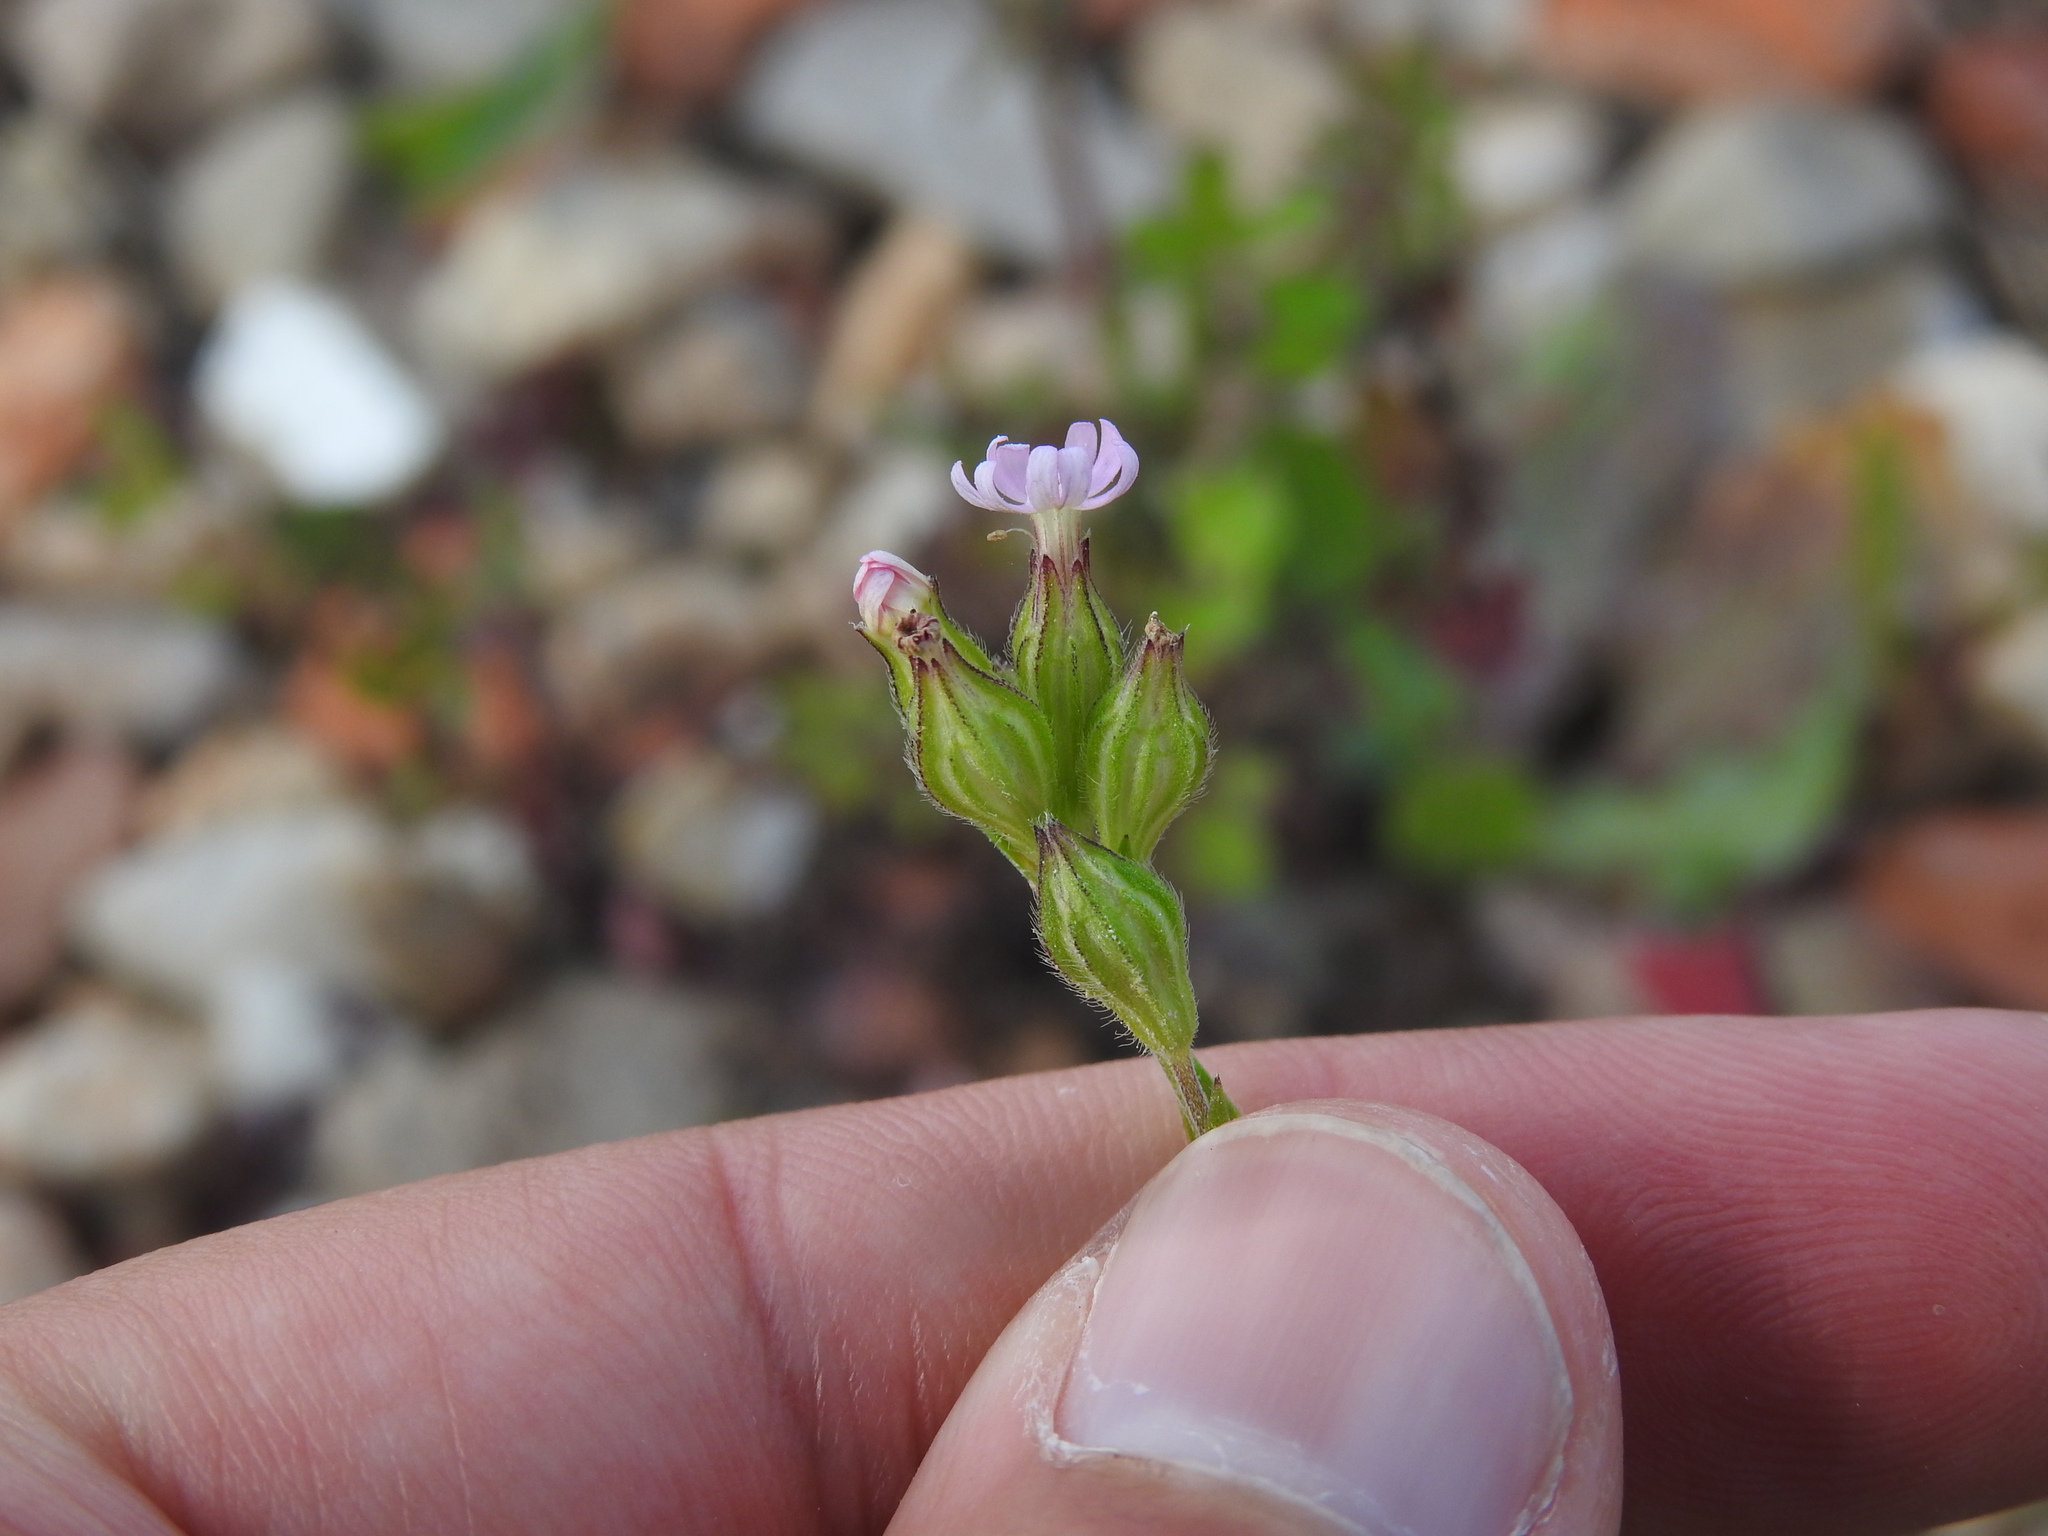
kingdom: Plantae
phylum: Tracheophyta
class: Magnoliopsida
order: Caryophyllales
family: Caryophyllaceae
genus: Silene
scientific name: Silene apetala
